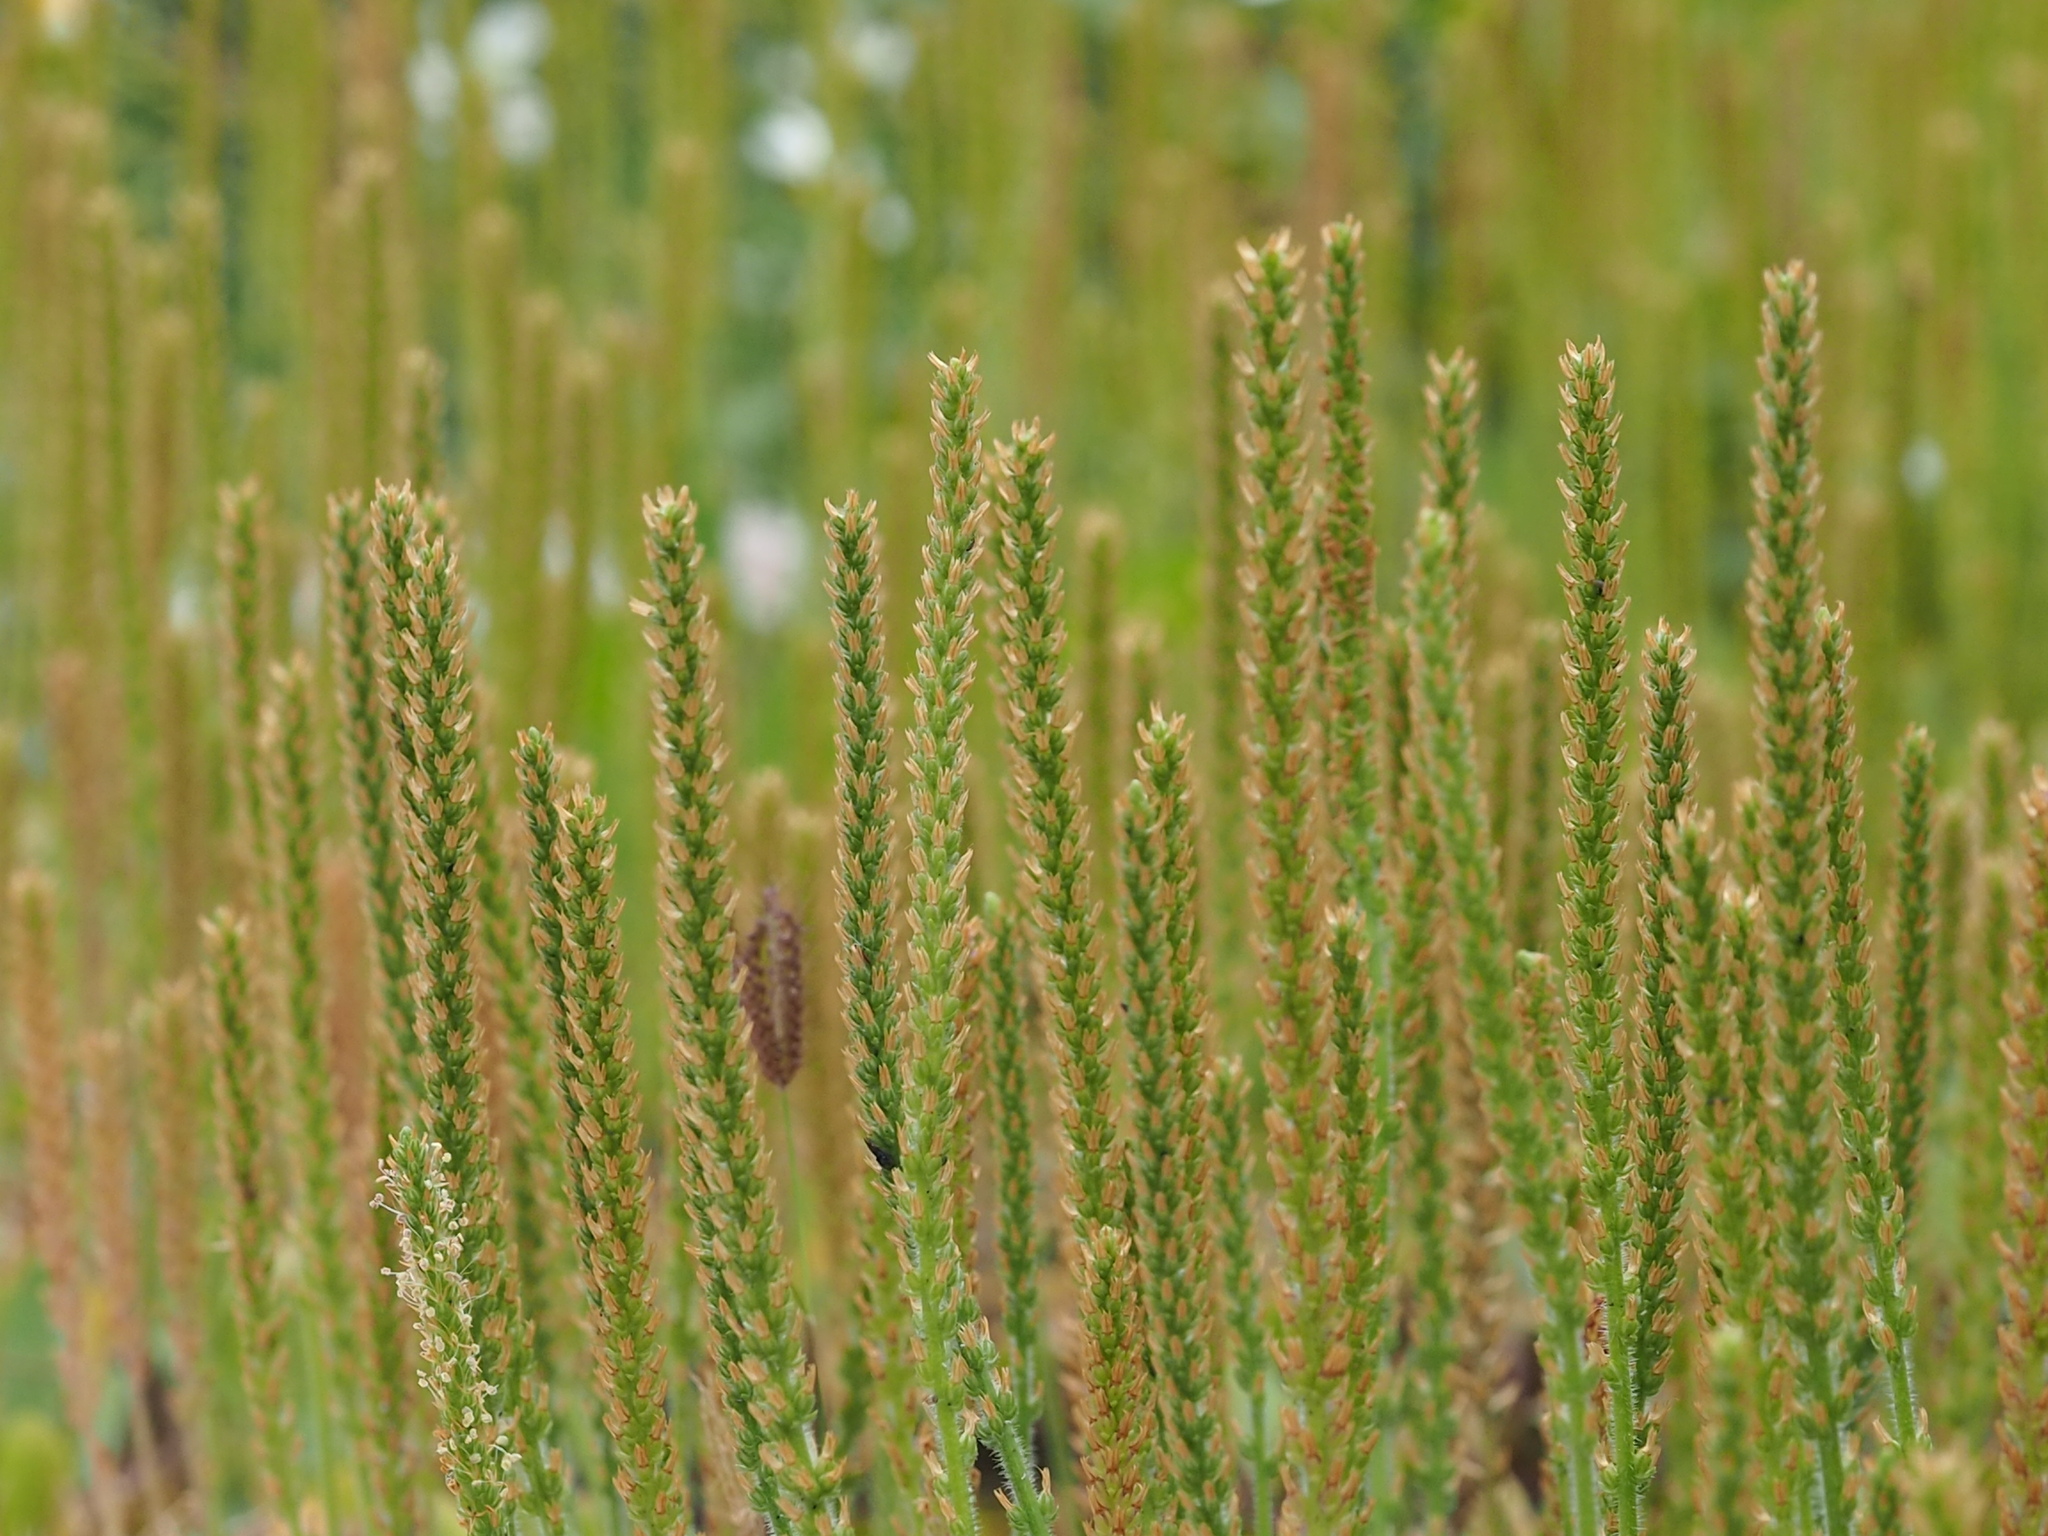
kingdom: Plantae
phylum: Tracheophyta
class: Magnoliopsida
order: Lamiales
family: Plantaginaceae
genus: Plantago
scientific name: Plantago virginica
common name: Hoary plantain
